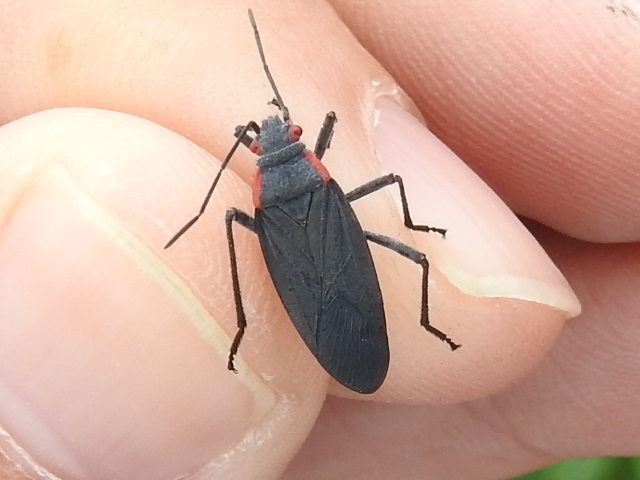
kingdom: Animalia
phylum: Arthropoda
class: Insecta
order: Hemiptera
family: Rhopalidae
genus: Jadera
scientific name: Jadera haematoloma
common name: Red-shouldered bug
